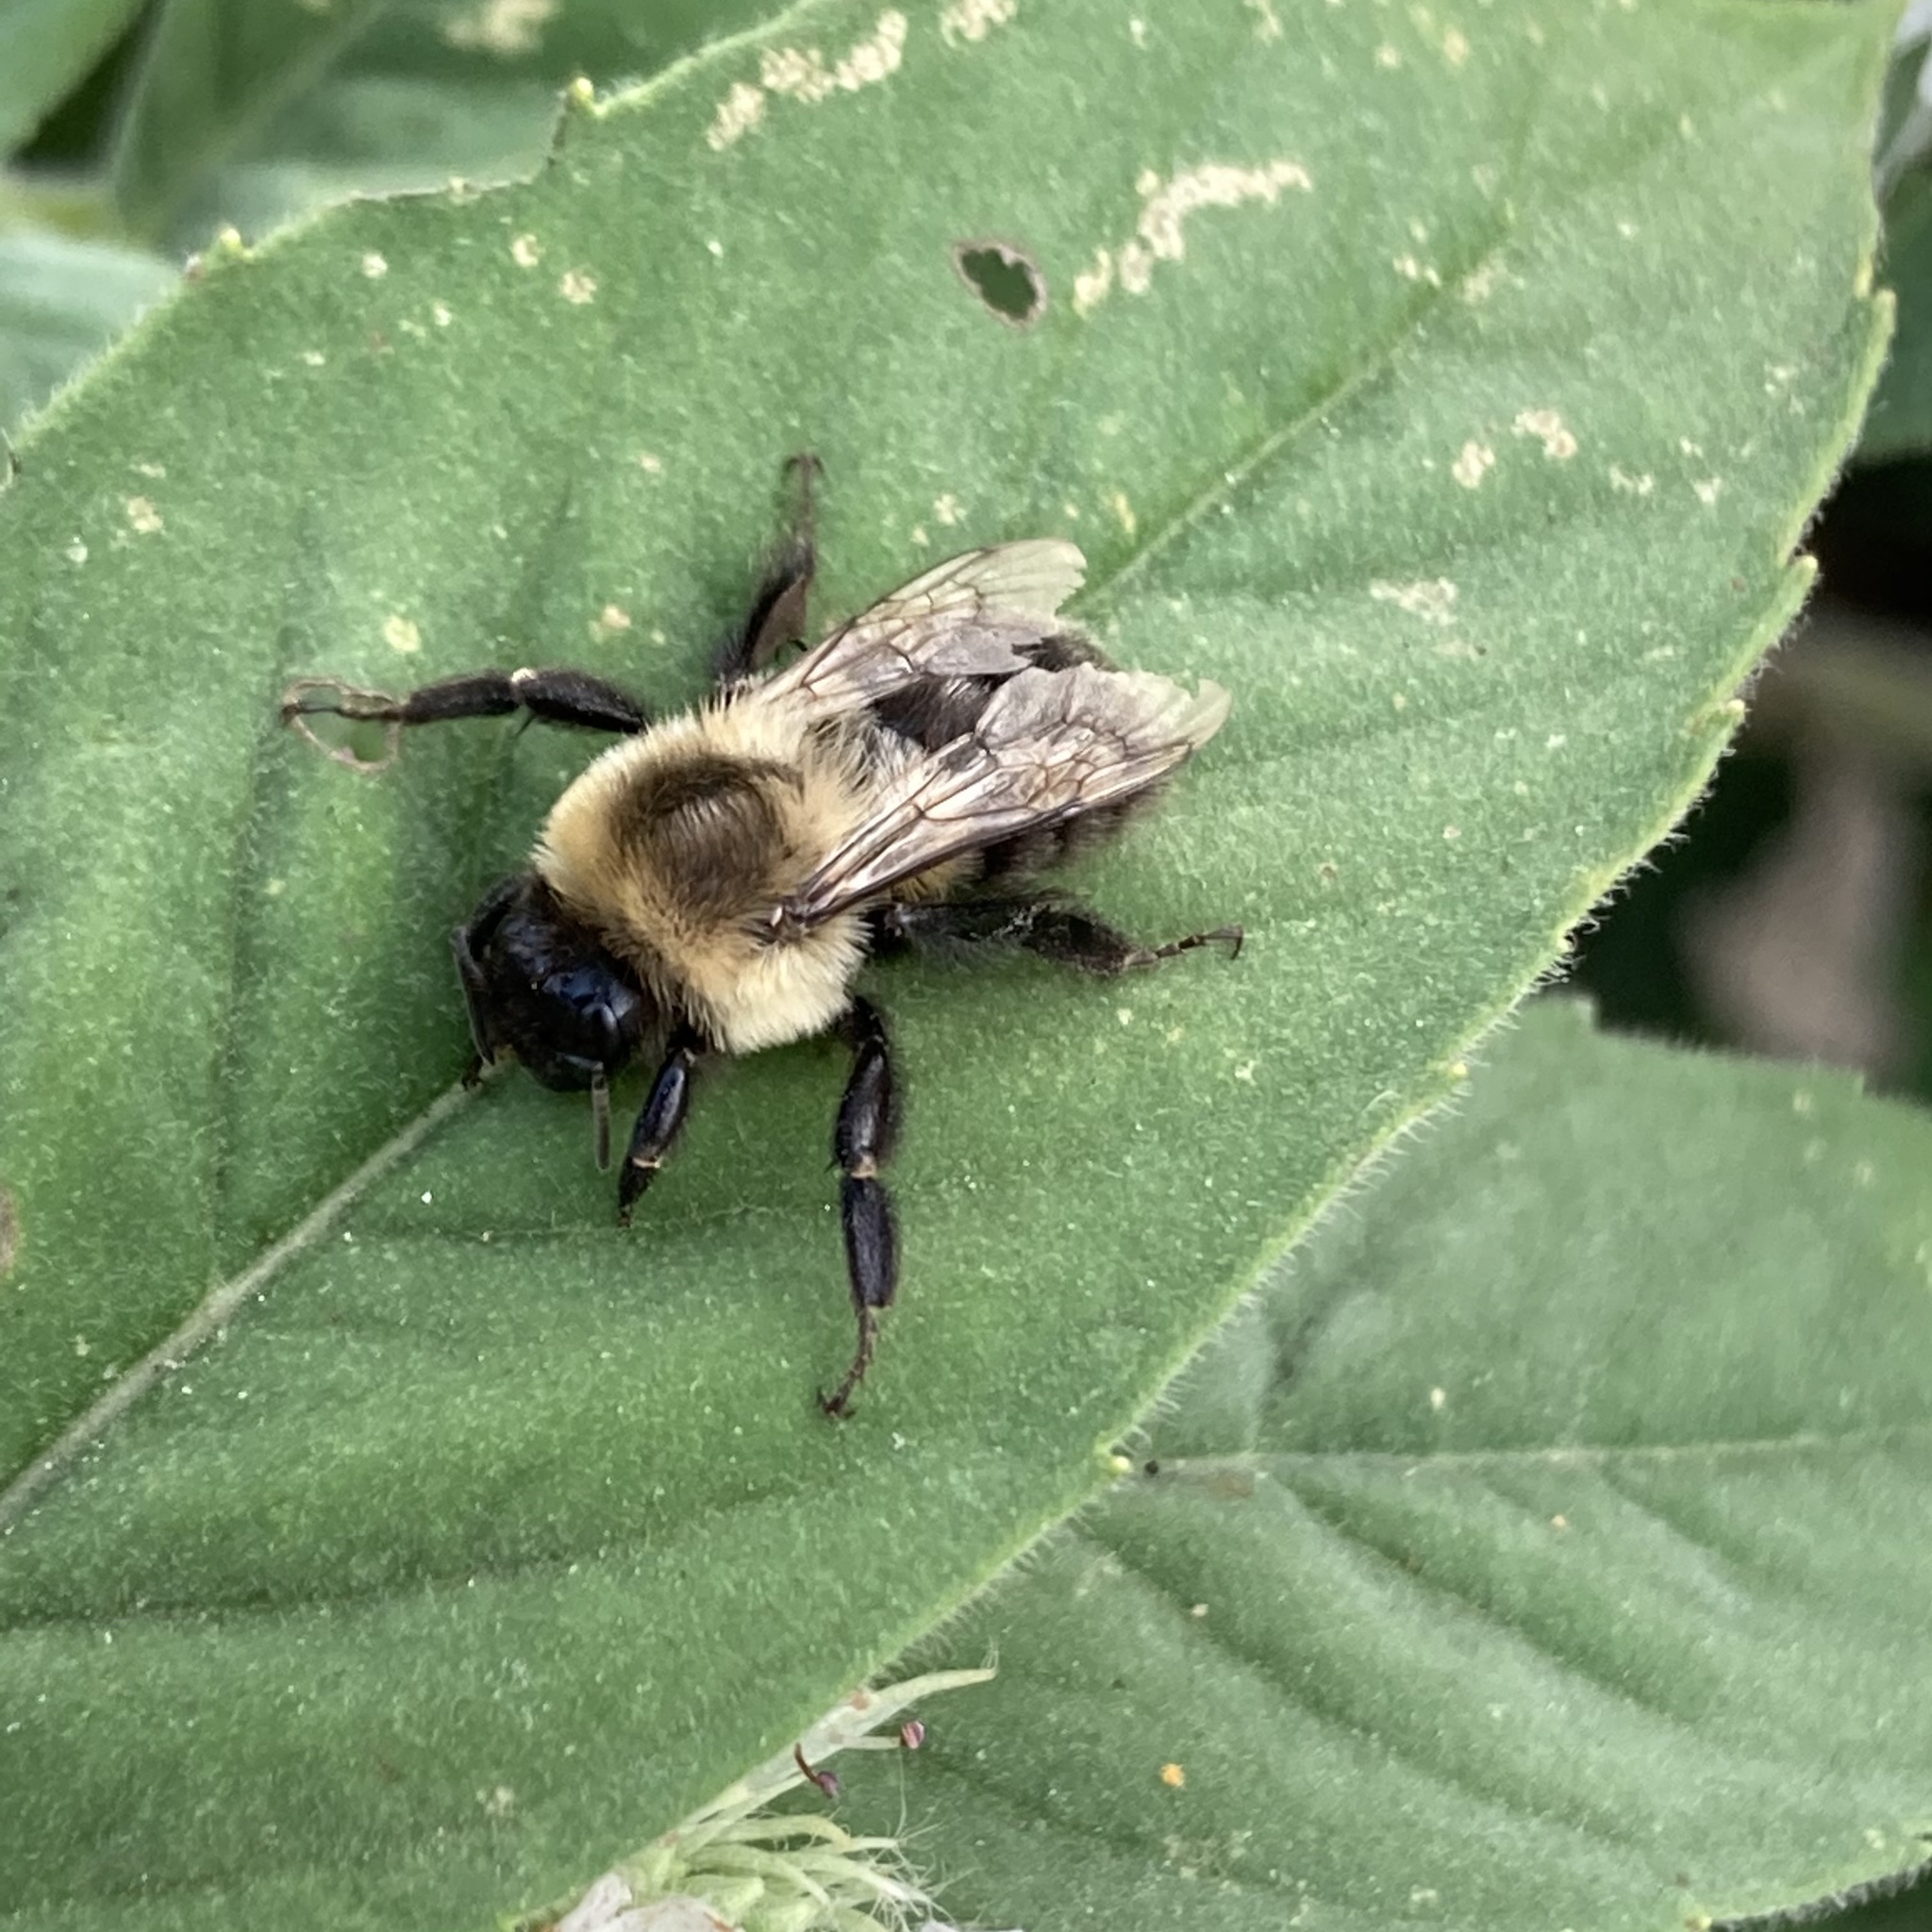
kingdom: Animalia
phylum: Arthropoda
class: Insecta
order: Hymenoptera
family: Apidae
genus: Bombus
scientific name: Bombus impatiens
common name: Common eastern bumble bee
